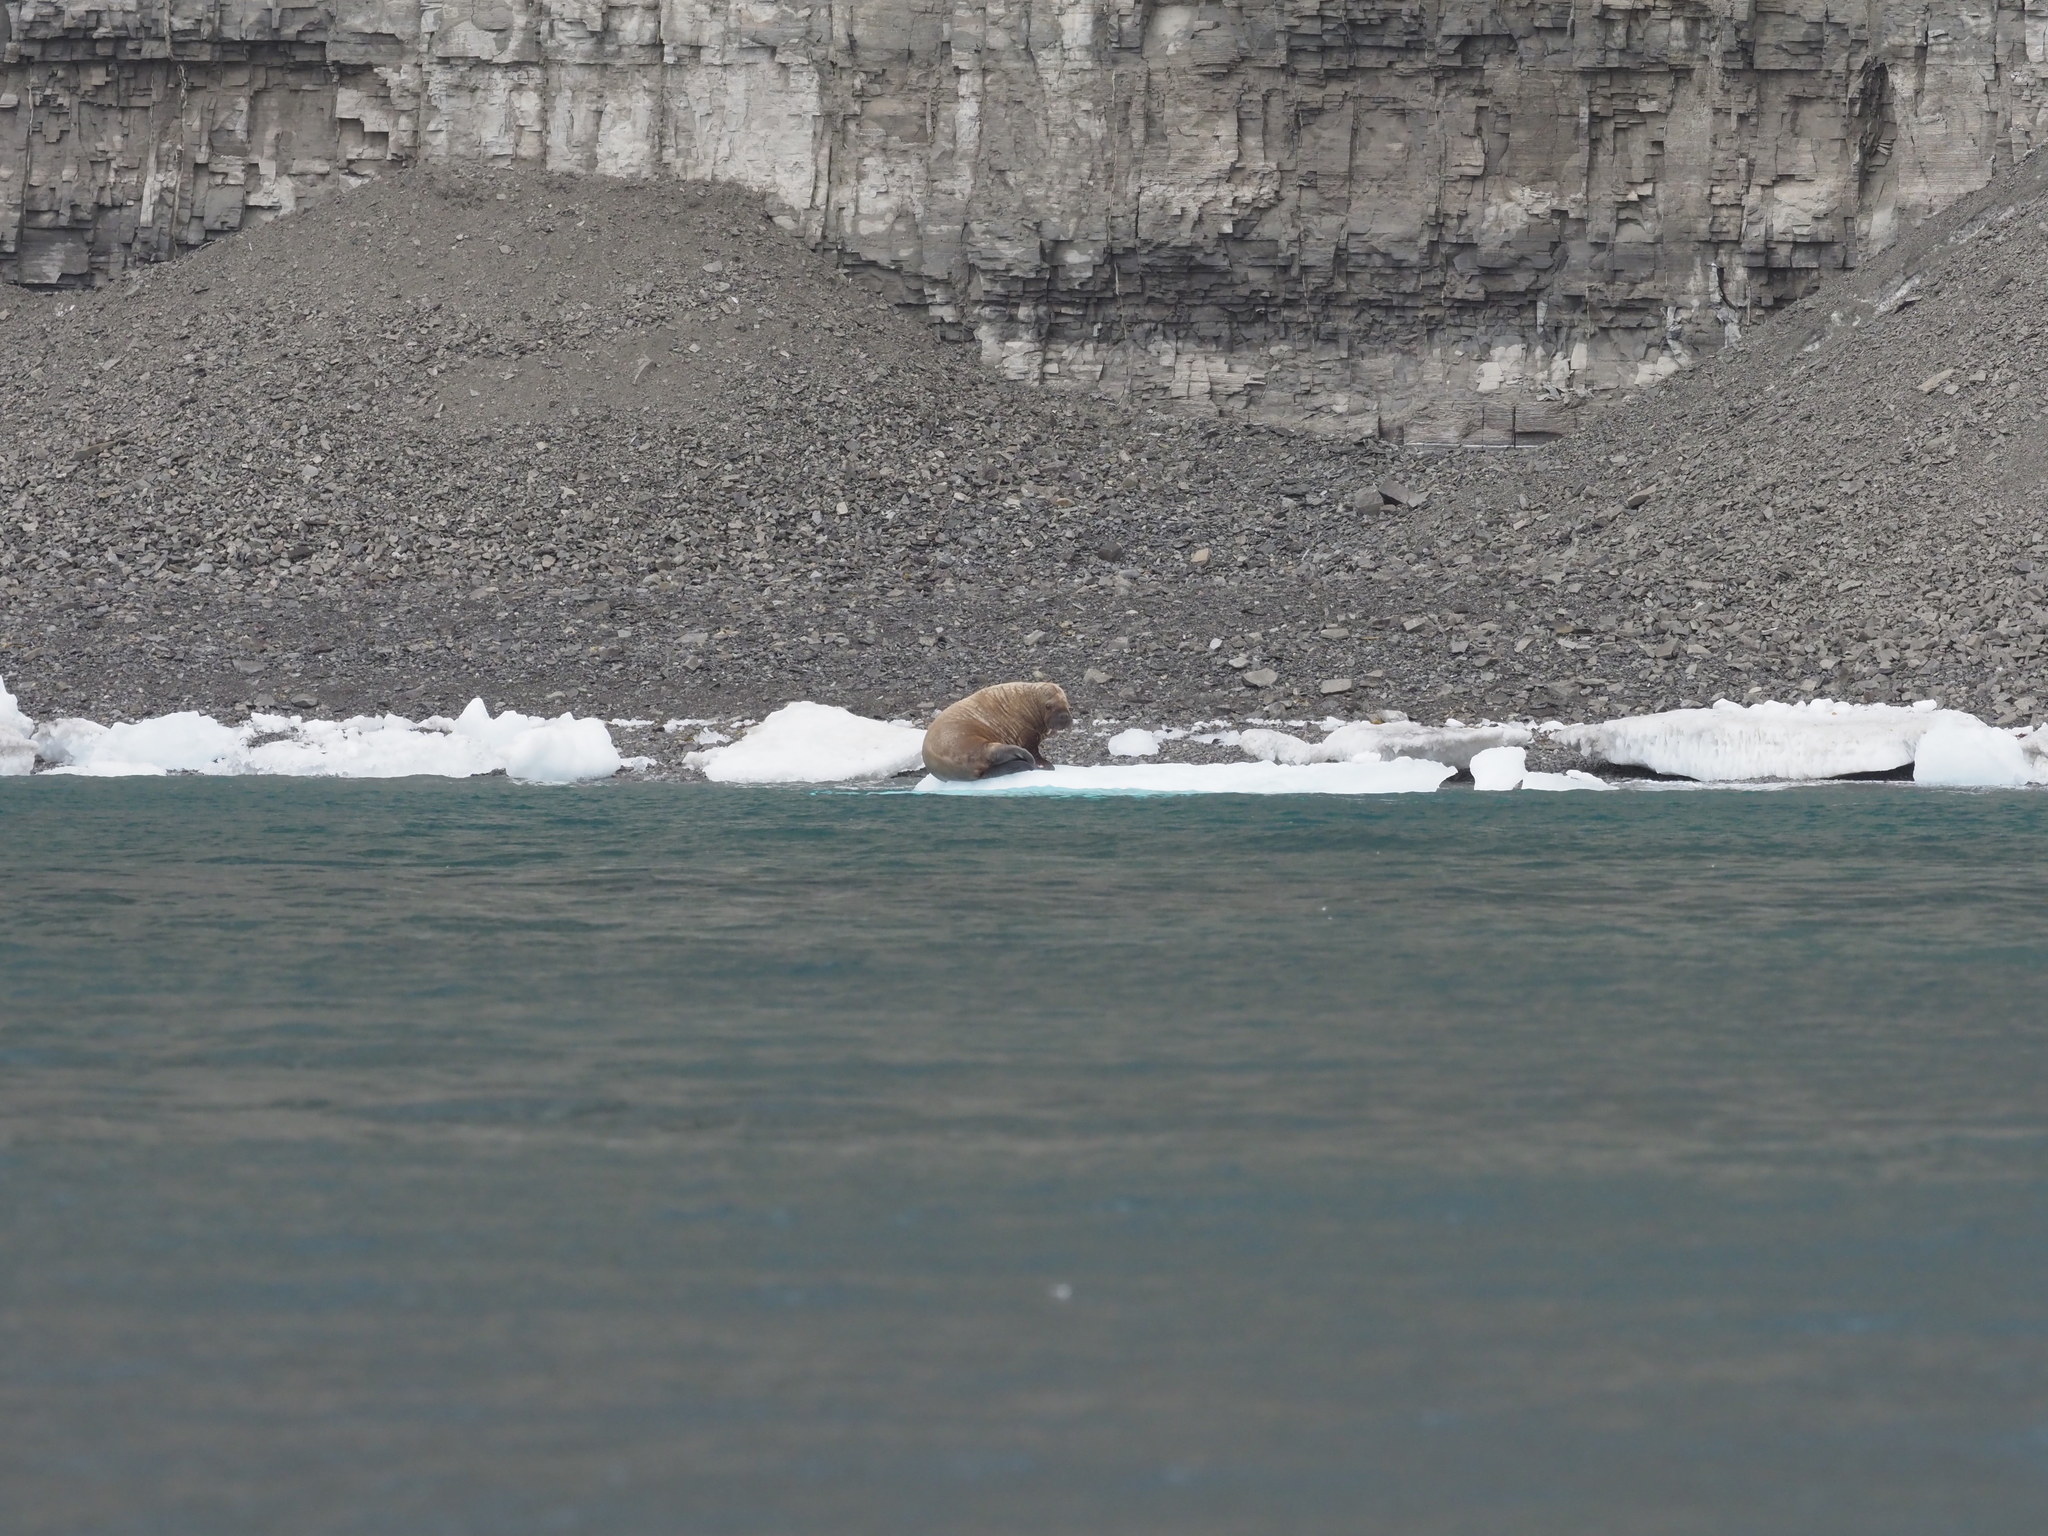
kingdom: Animalia
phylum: Chordata
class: Mammalia
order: Carnivora
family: Odobenidae
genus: Odobenus
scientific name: Odobenus rosmarus
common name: Walrus
